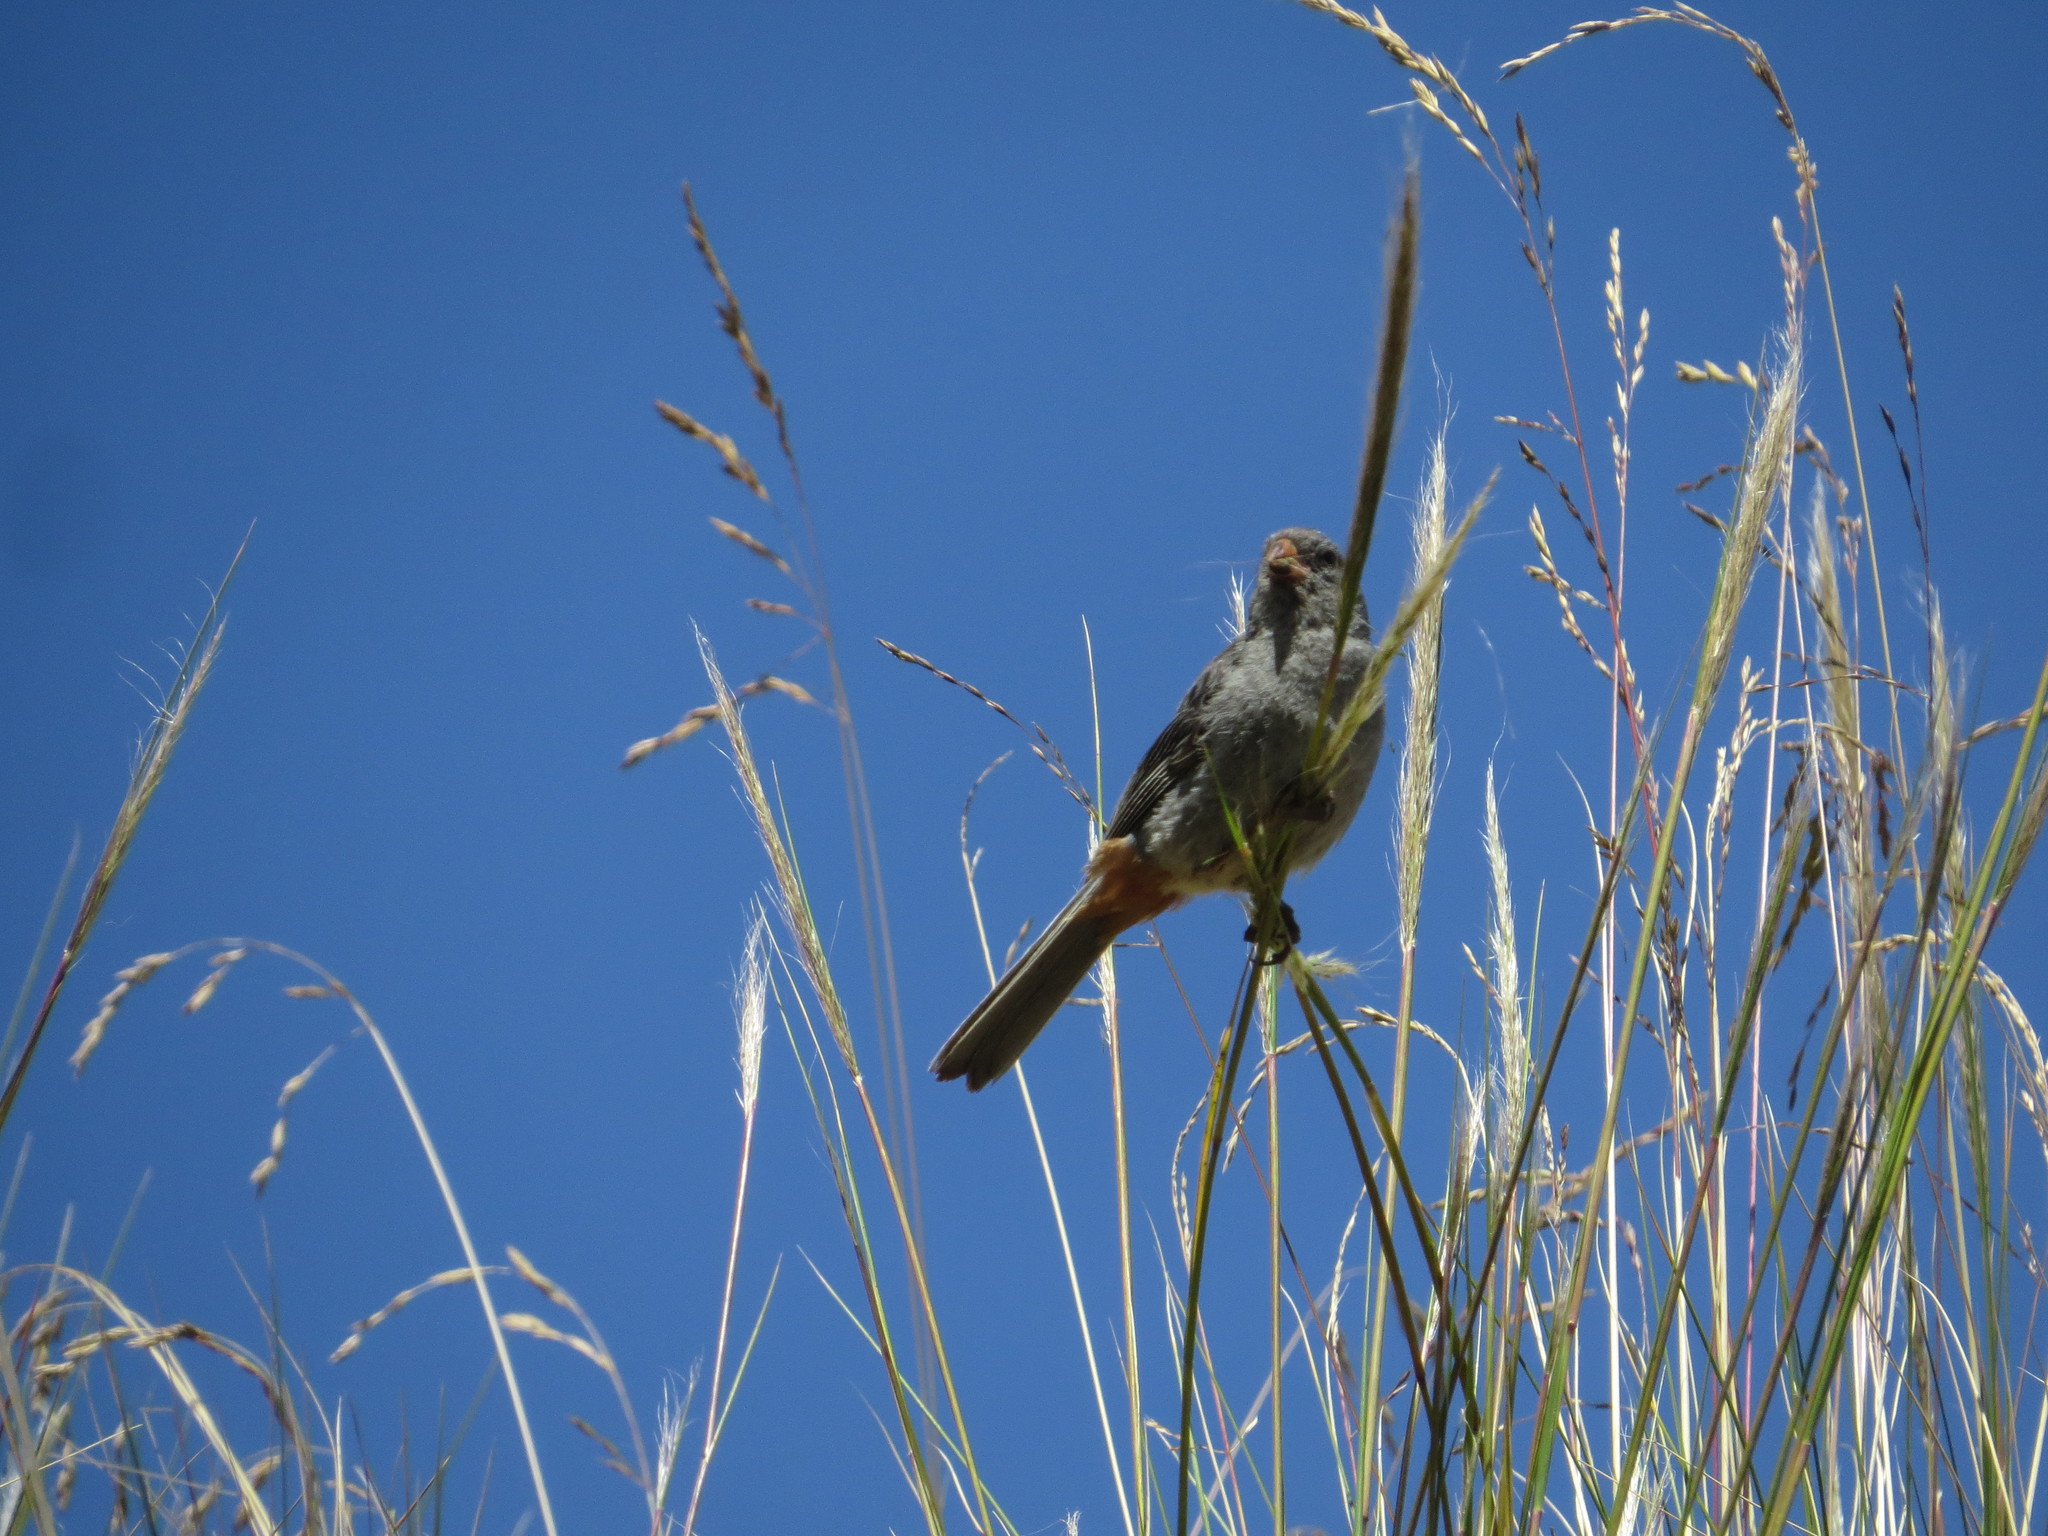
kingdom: Animalia
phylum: Chordata
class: Aves
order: Passeriformes
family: Thraupidae
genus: Catamenia
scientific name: Catamenia inornata
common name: Plain-colored seedeater
